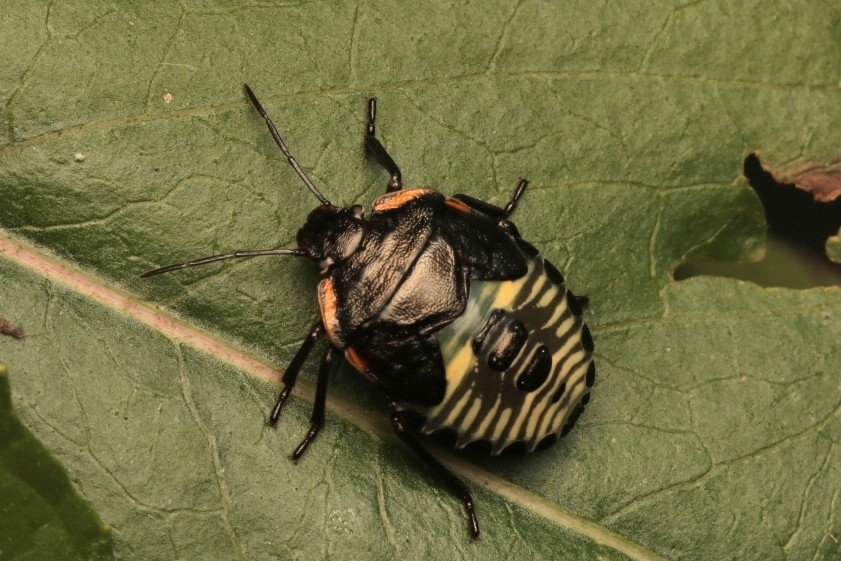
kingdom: Animalia
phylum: Arthropoda
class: Insecta
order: Hemiptera
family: Pentatomidae
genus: Chinavia
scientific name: Chinavia hilaris
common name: Green stink bug
